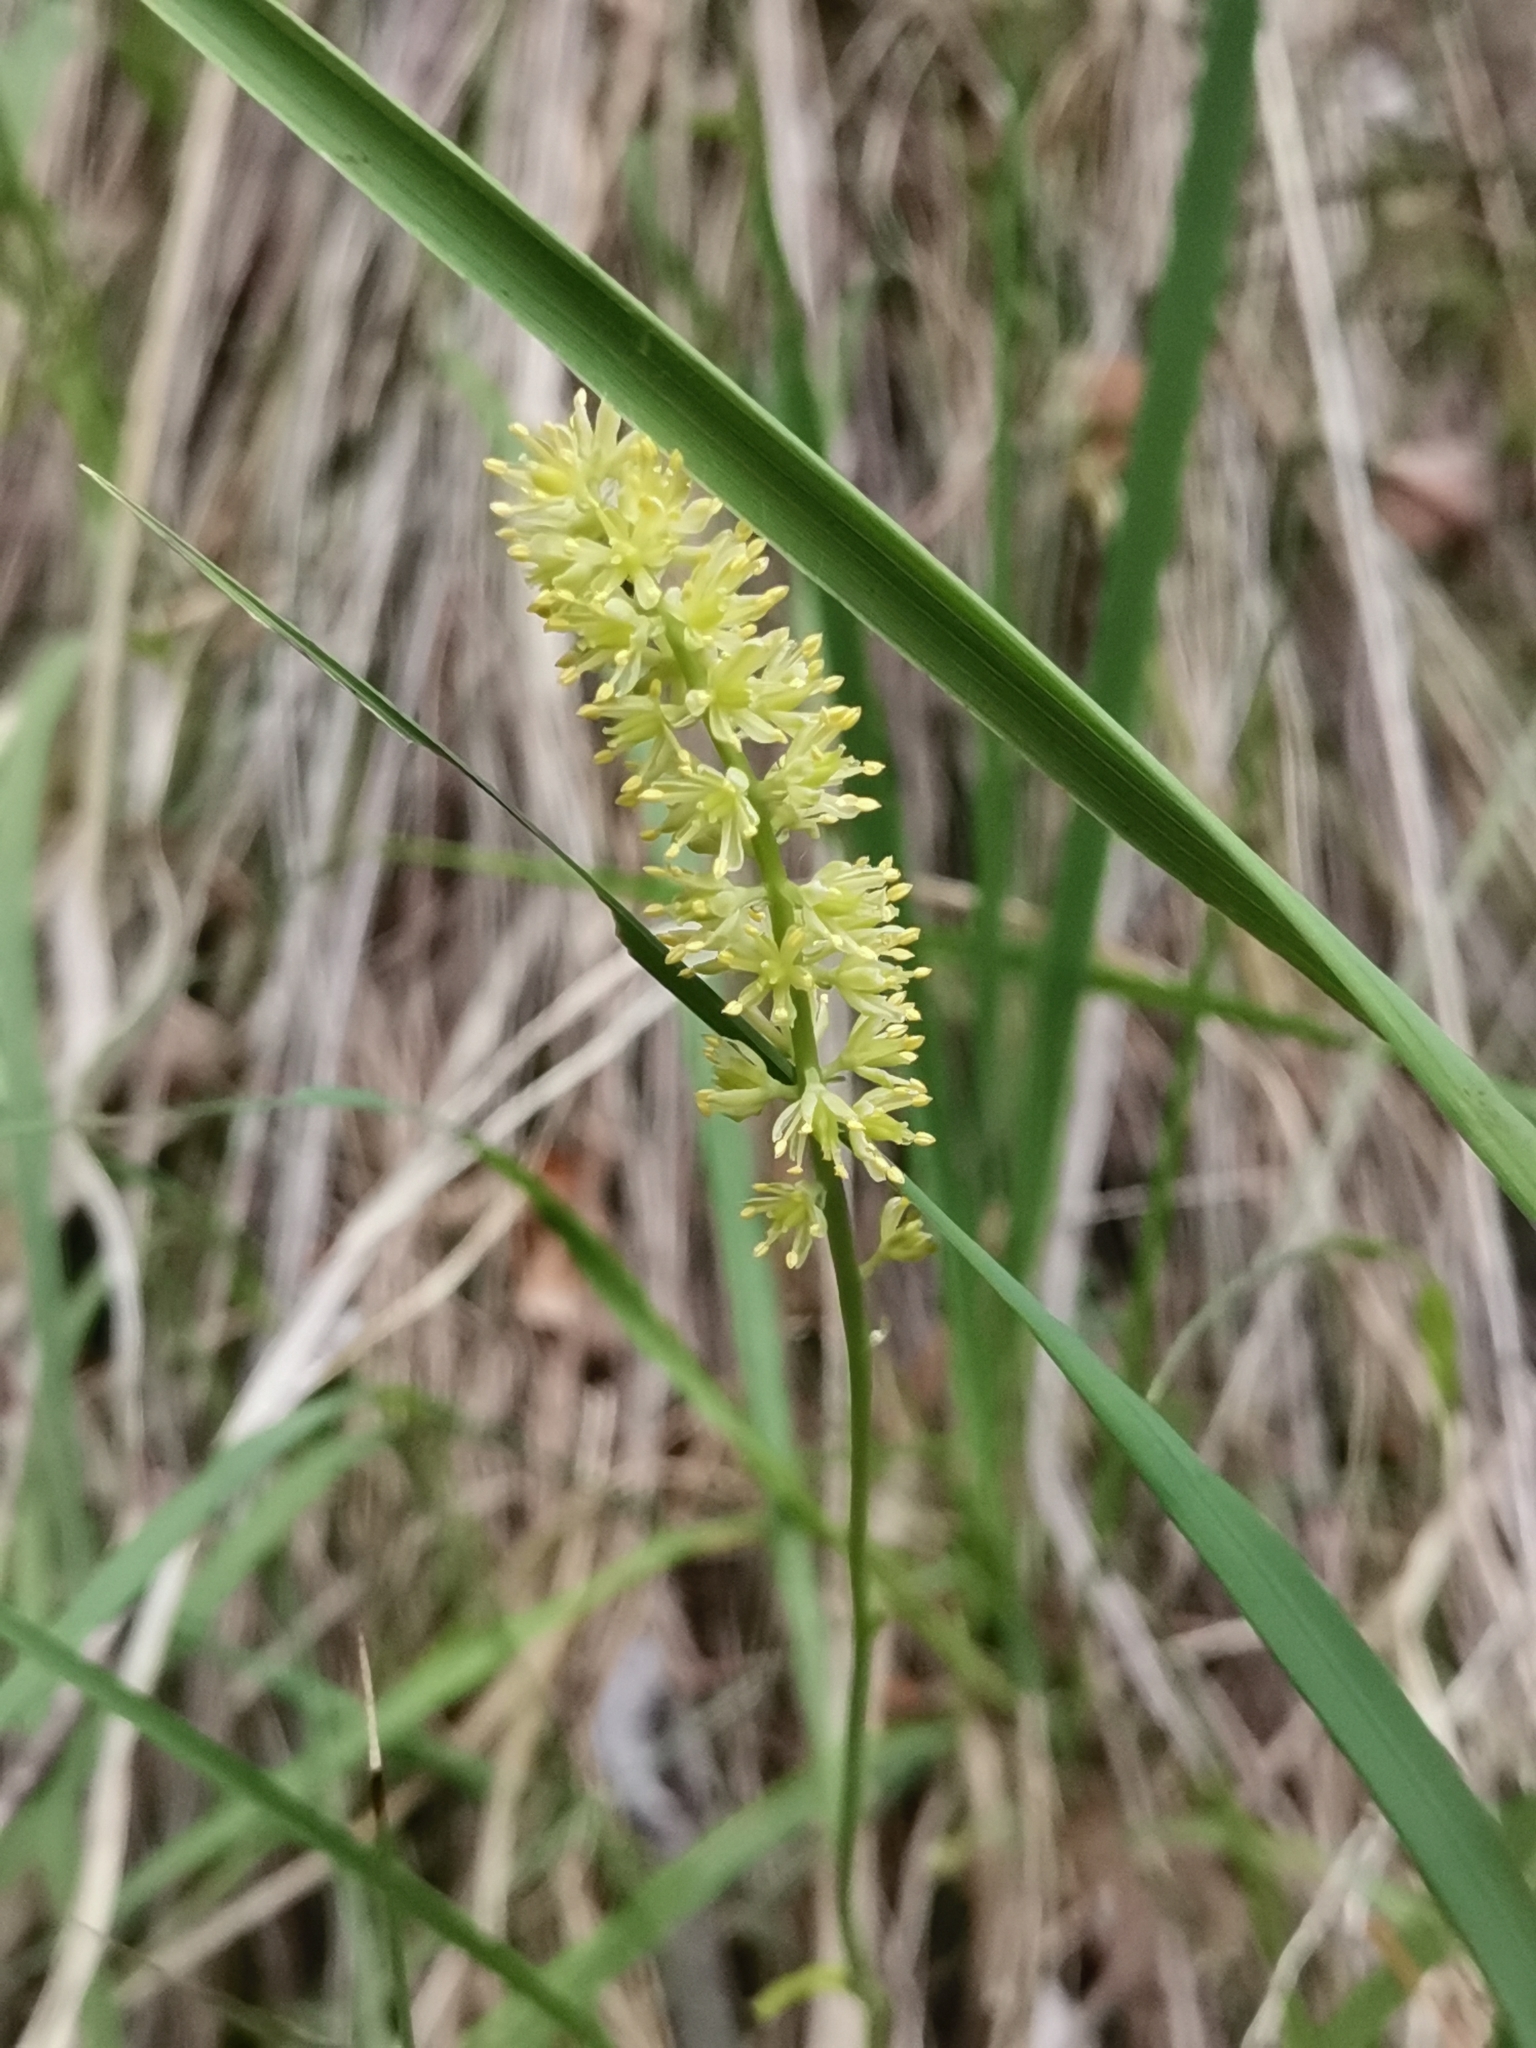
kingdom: Plantae
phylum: Tracheophyta
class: Liliopsida
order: Alismatales
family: Tofieldiaceae
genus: Tofieldia
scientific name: Tofieldia calyculata
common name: German-asphodel
